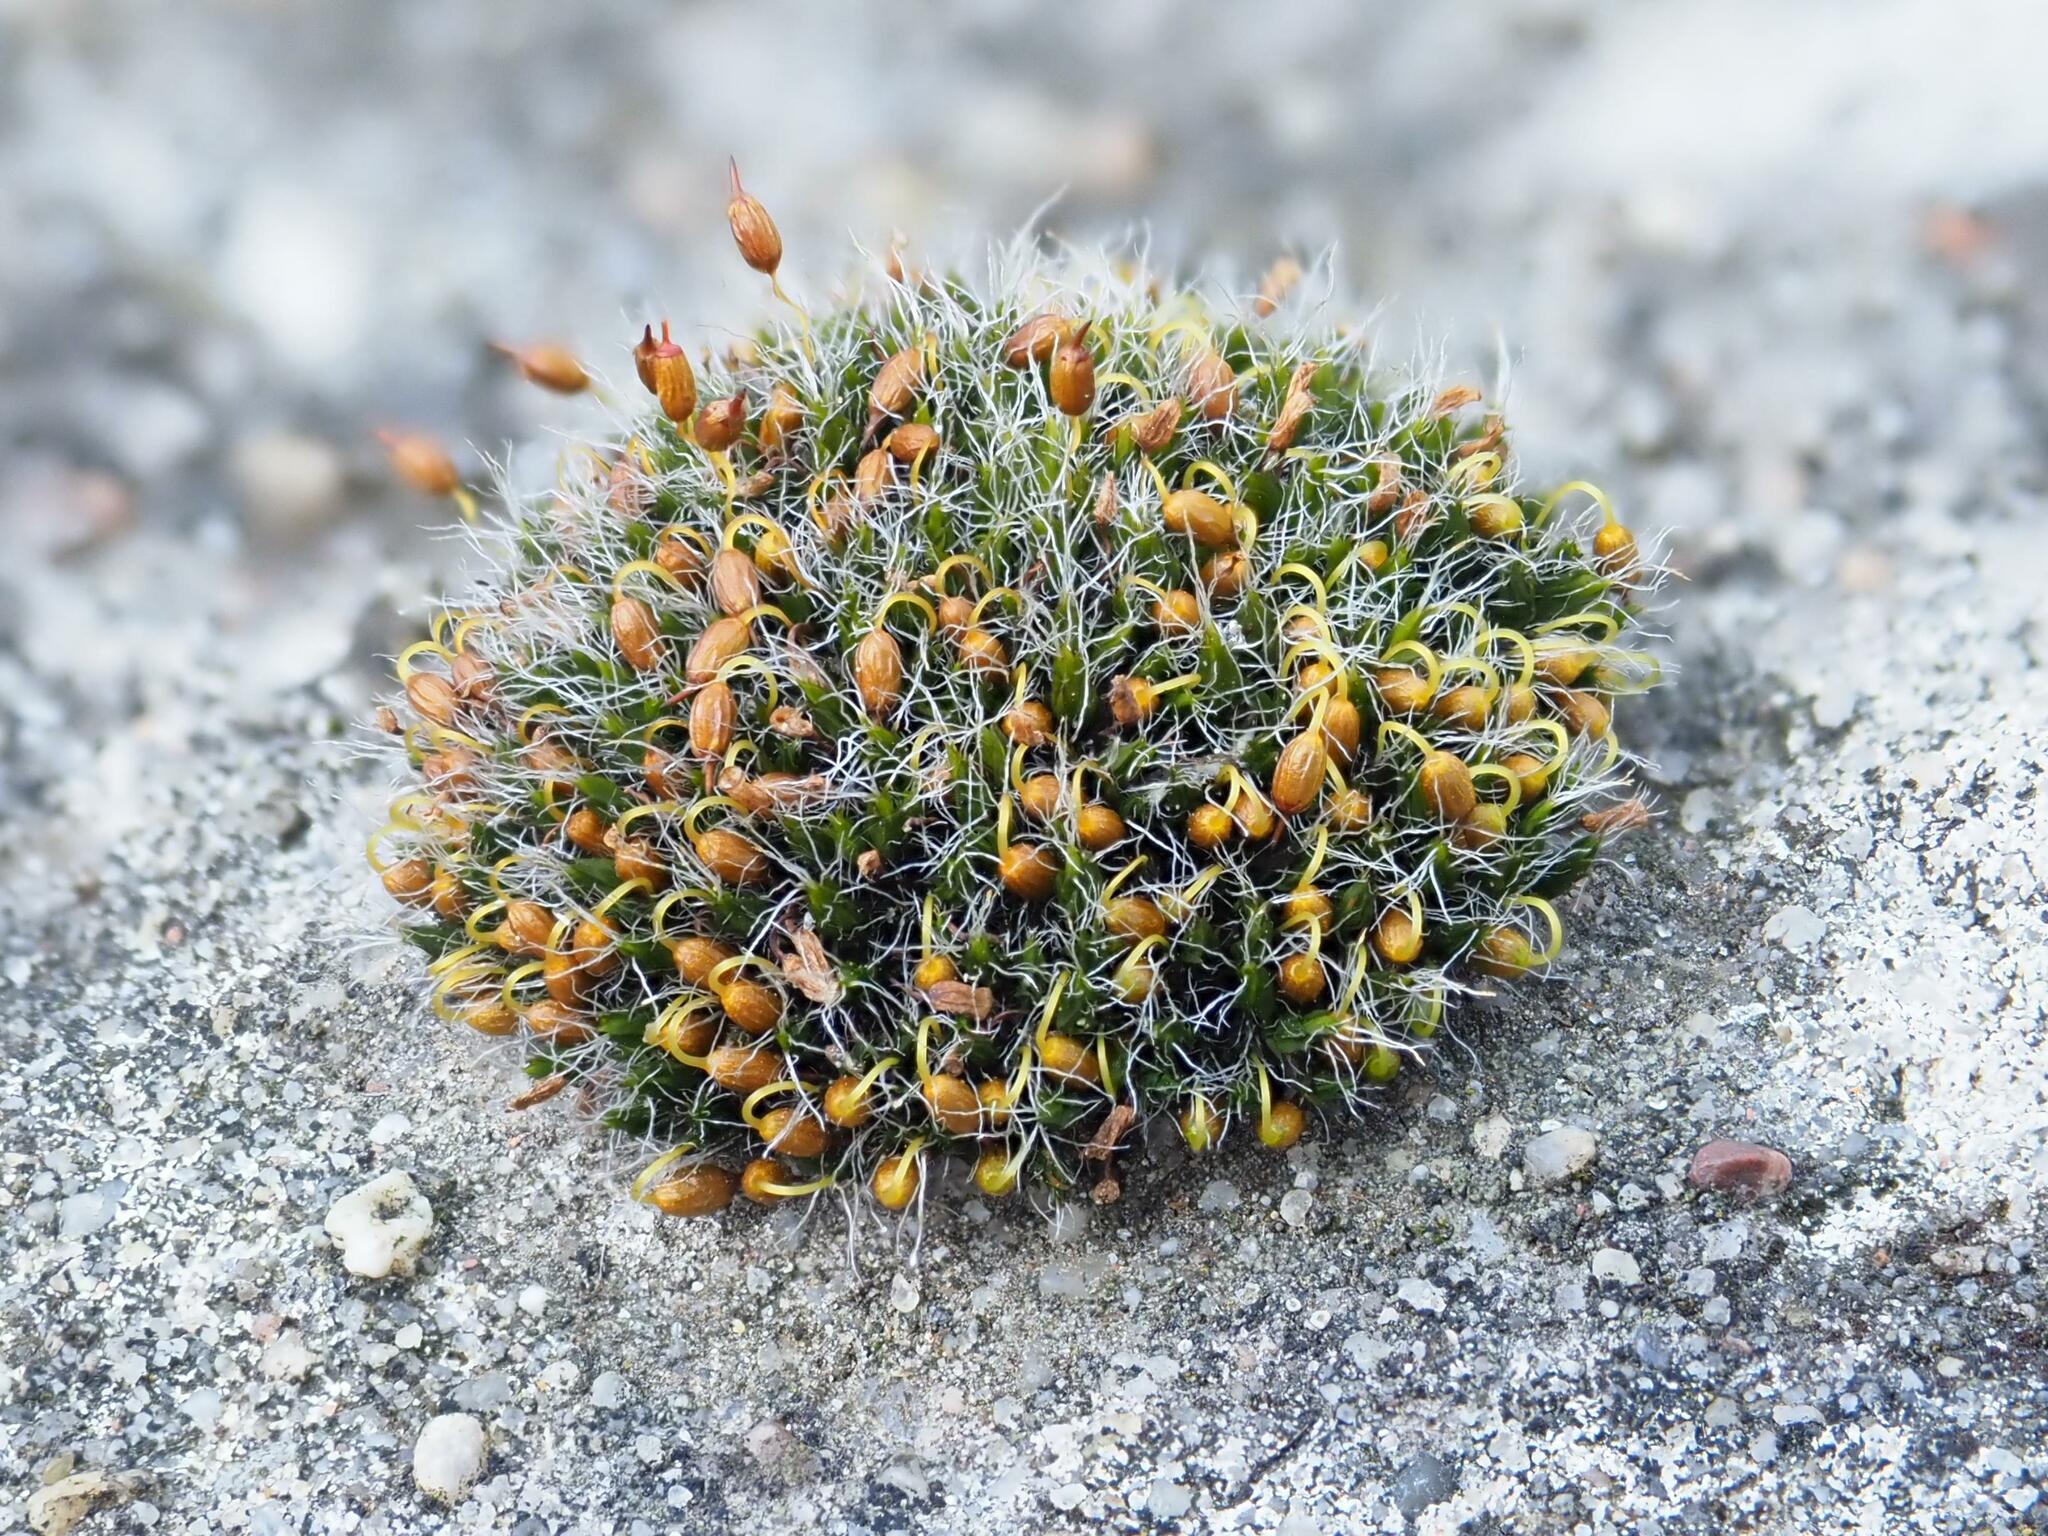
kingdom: Plantae
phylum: Bryophyta
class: Bryopsida
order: Grimmiales
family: Grimmiaceae
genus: Grimmia
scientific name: Grimmia pulvinata
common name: Grey-cushioned grimmia
